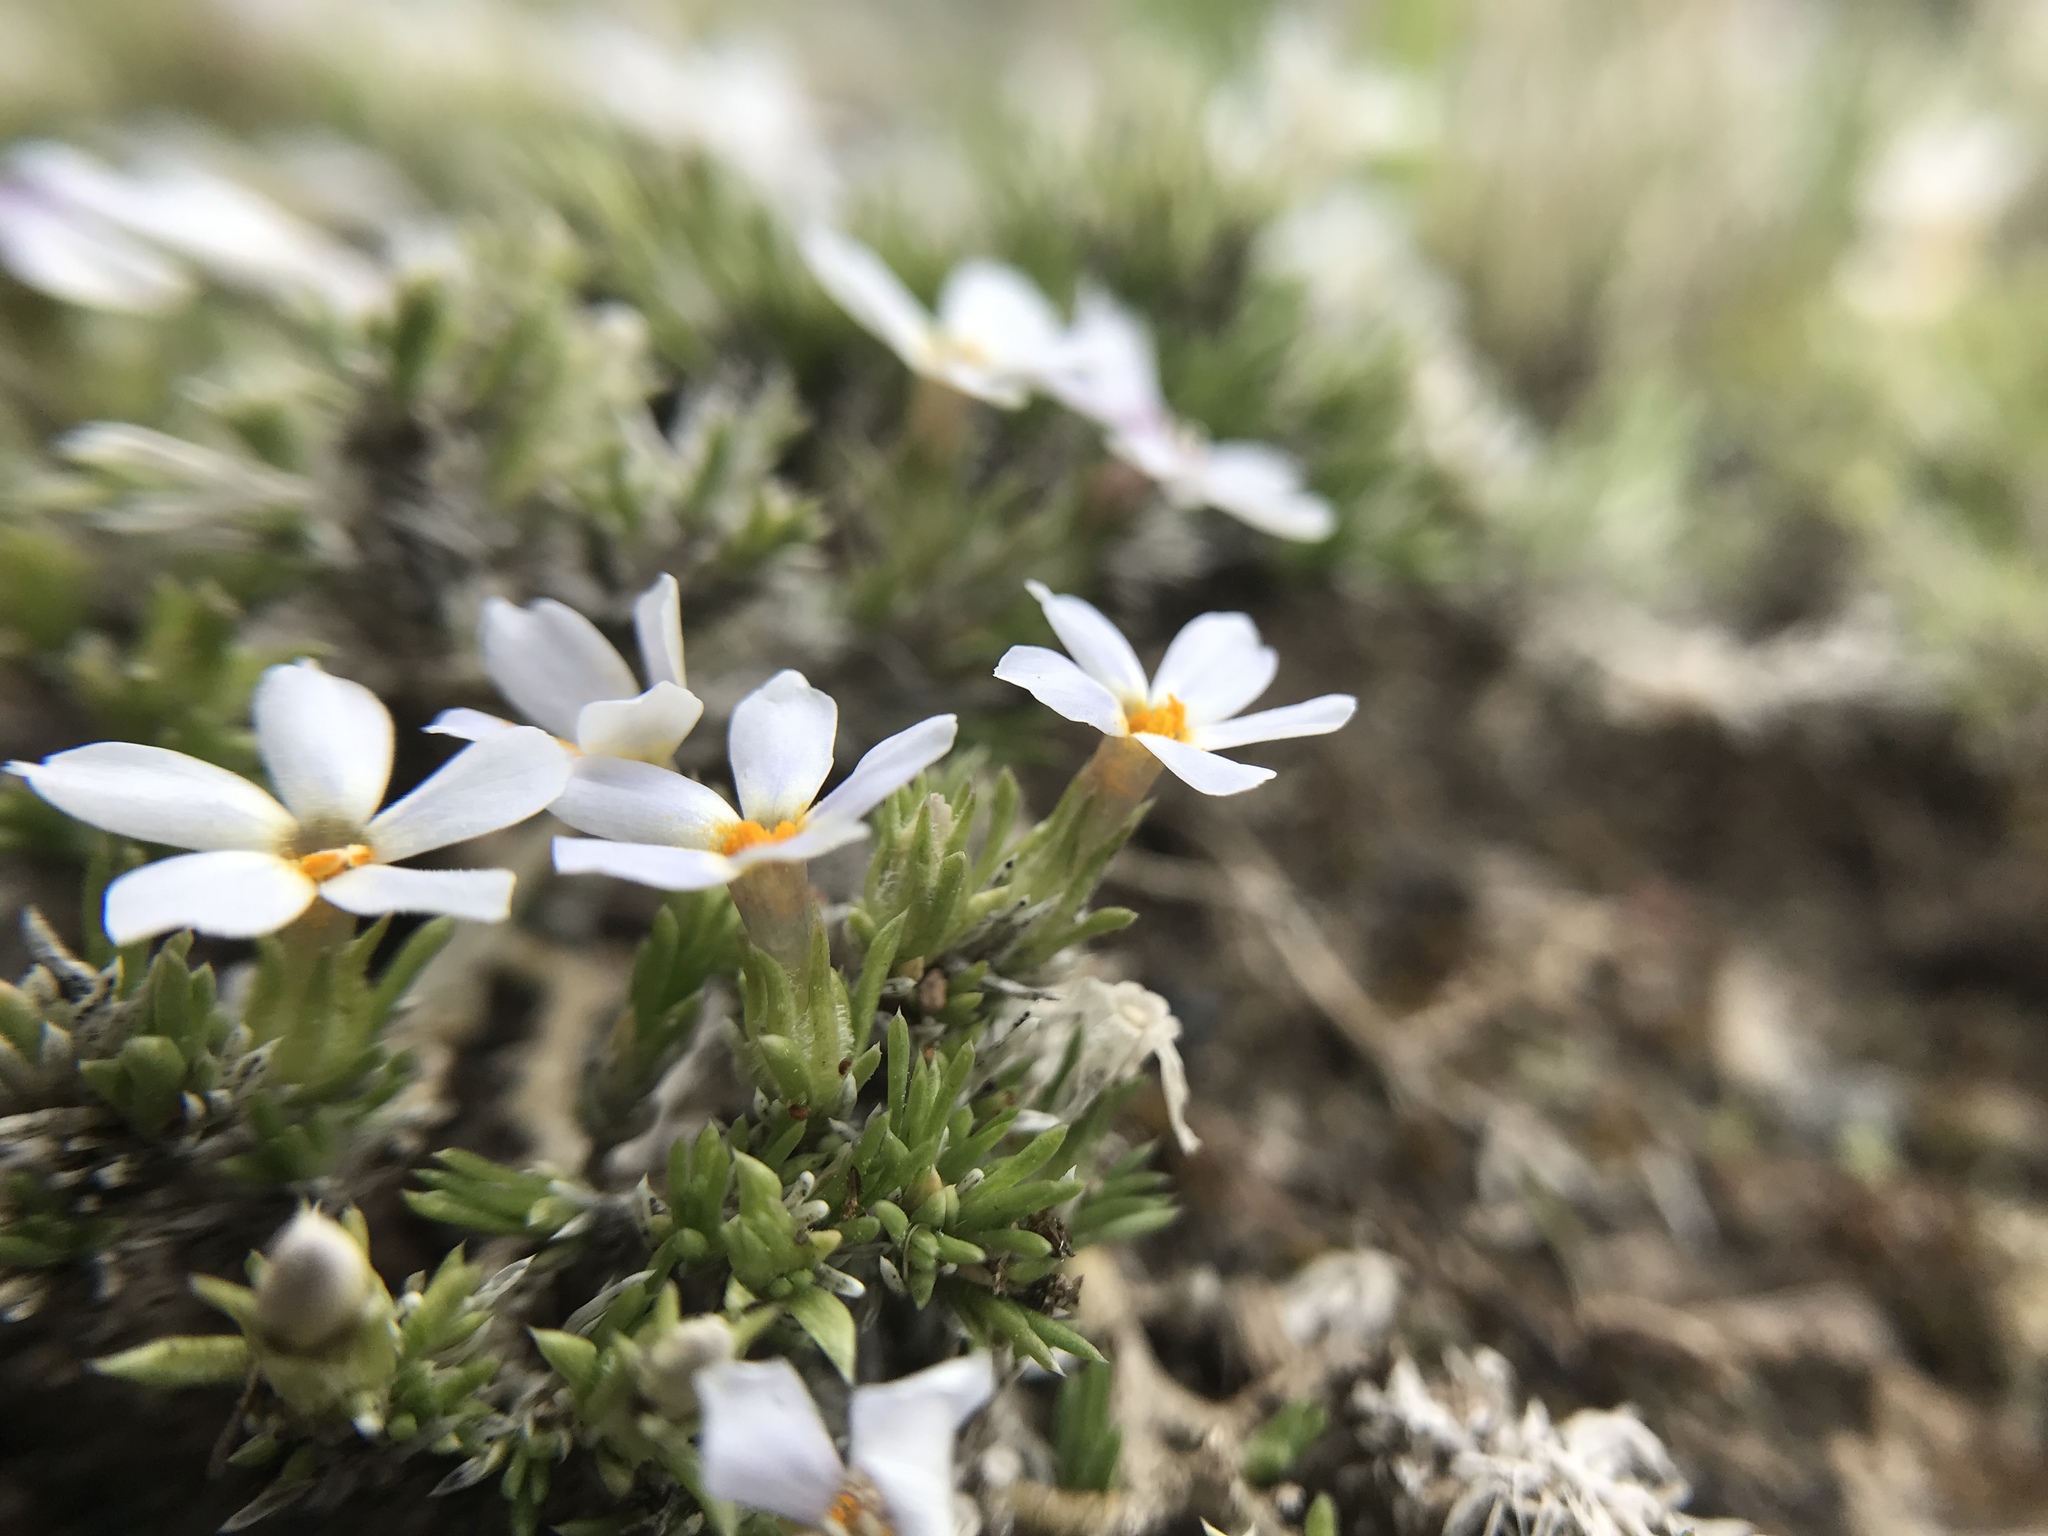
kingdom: Plantae
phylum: Tracheophyta
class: Magnoliopsida
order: Ericales
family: Polemoniaceae
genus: Phlox
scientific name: Phlox hoodii
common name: Moss phlox
